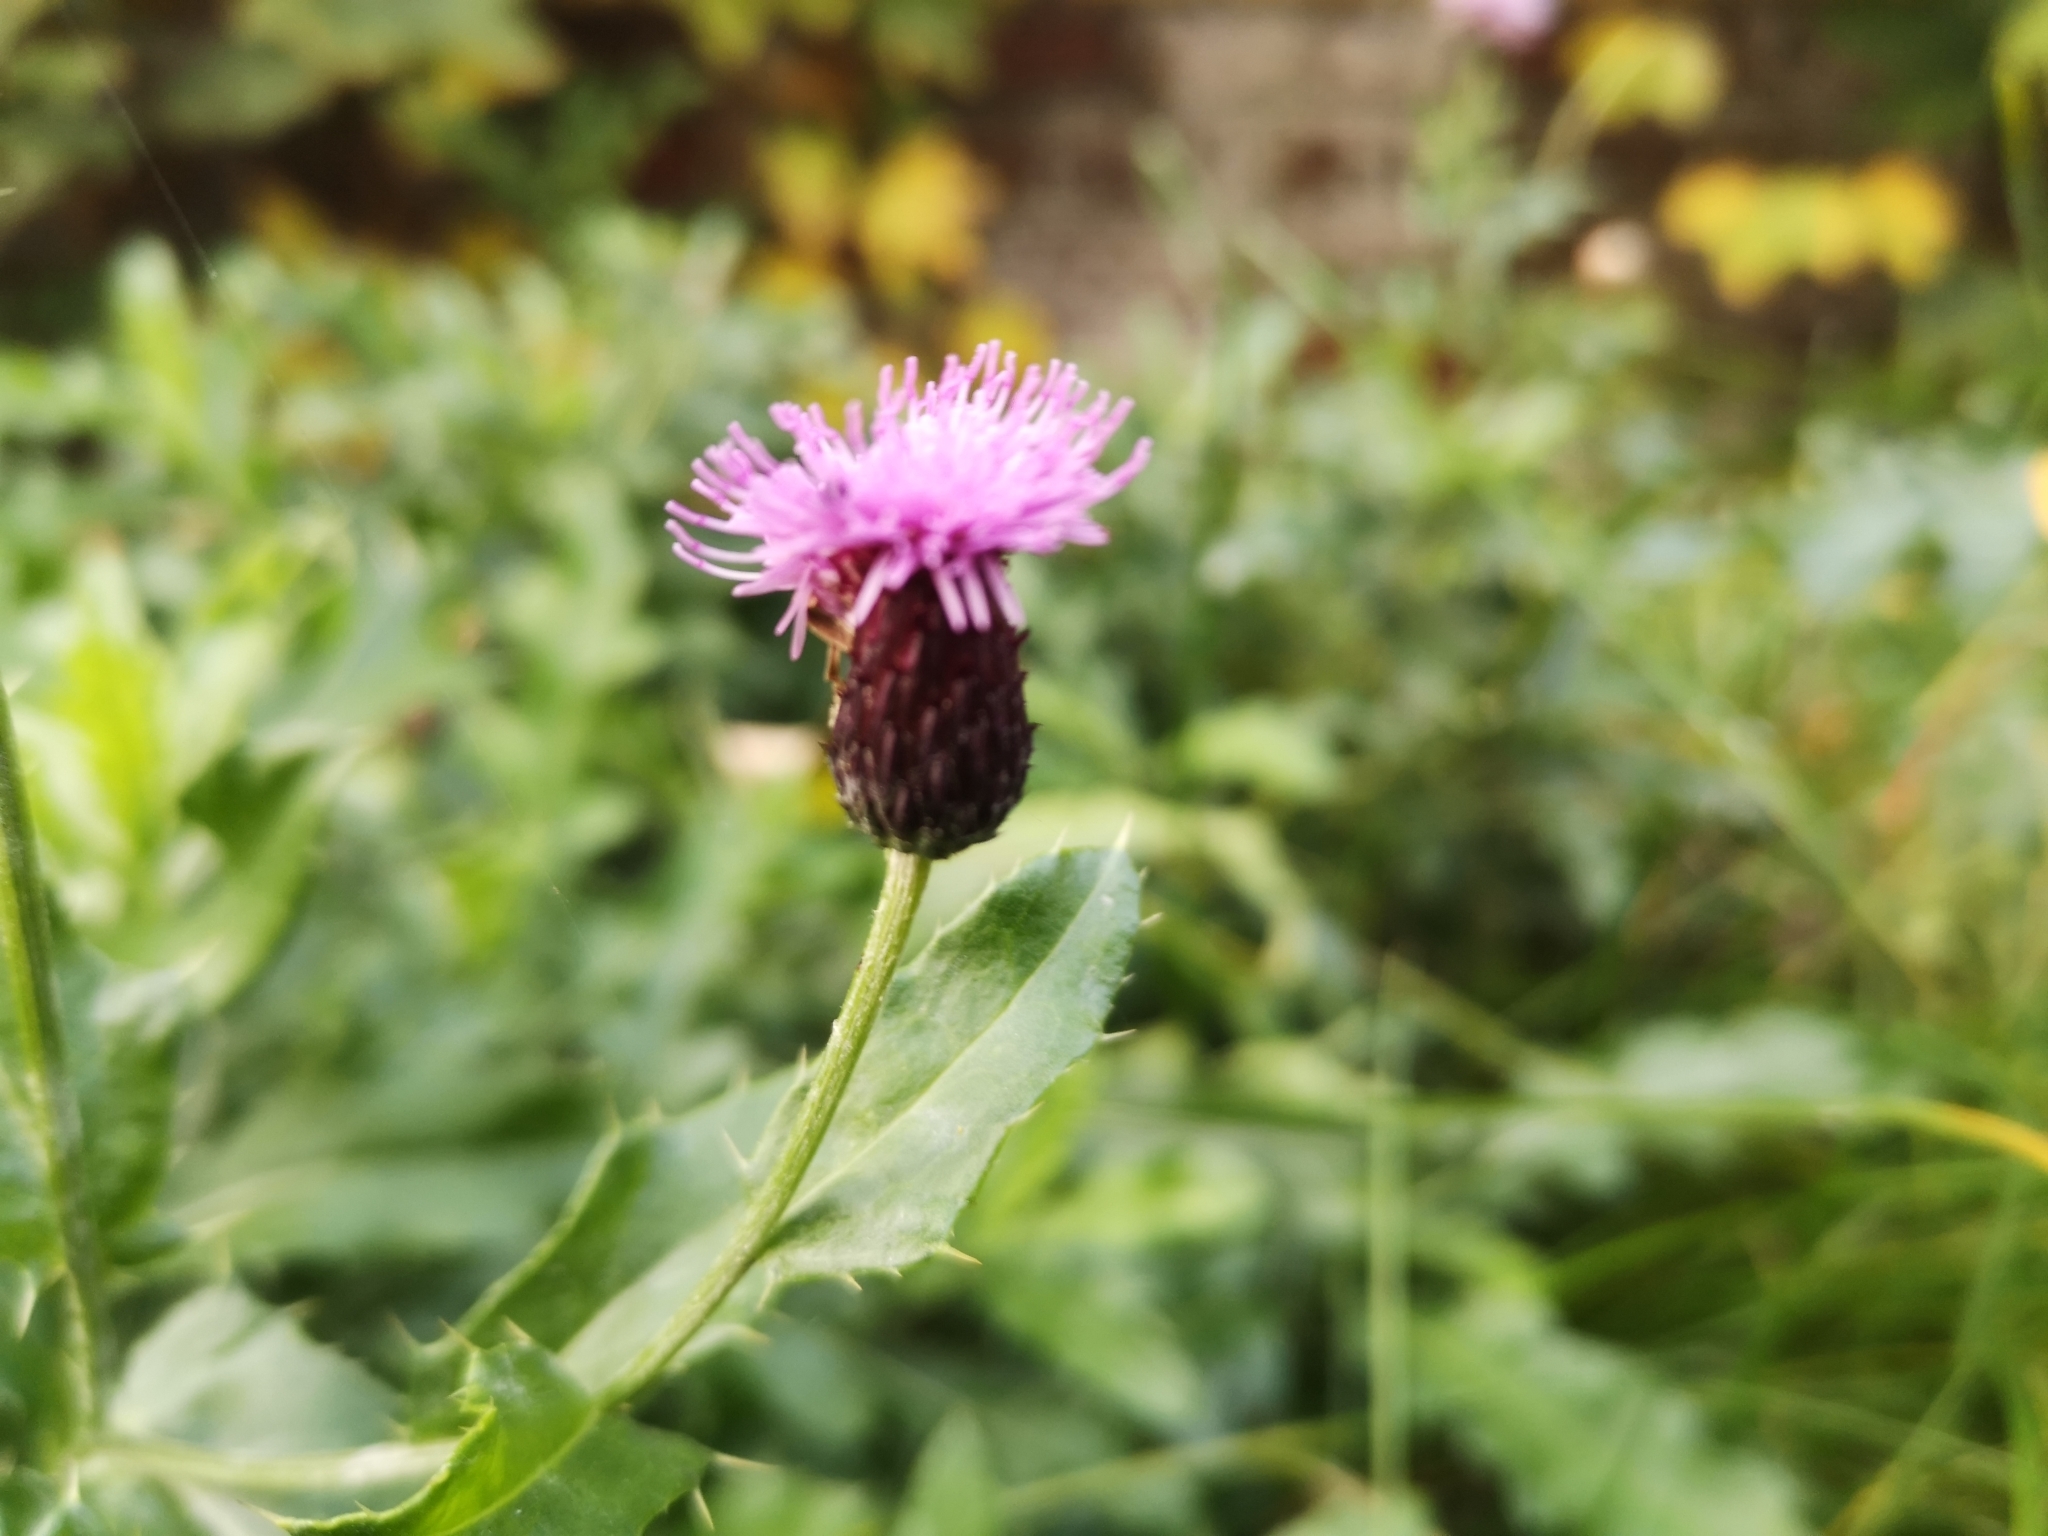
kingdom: Plantae
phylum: Tracheophyta
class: Magnoliopsida
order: Asterales
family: Asteraceae
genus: Cirsium
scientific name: Cirsium arvense
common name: Creeping thistle
